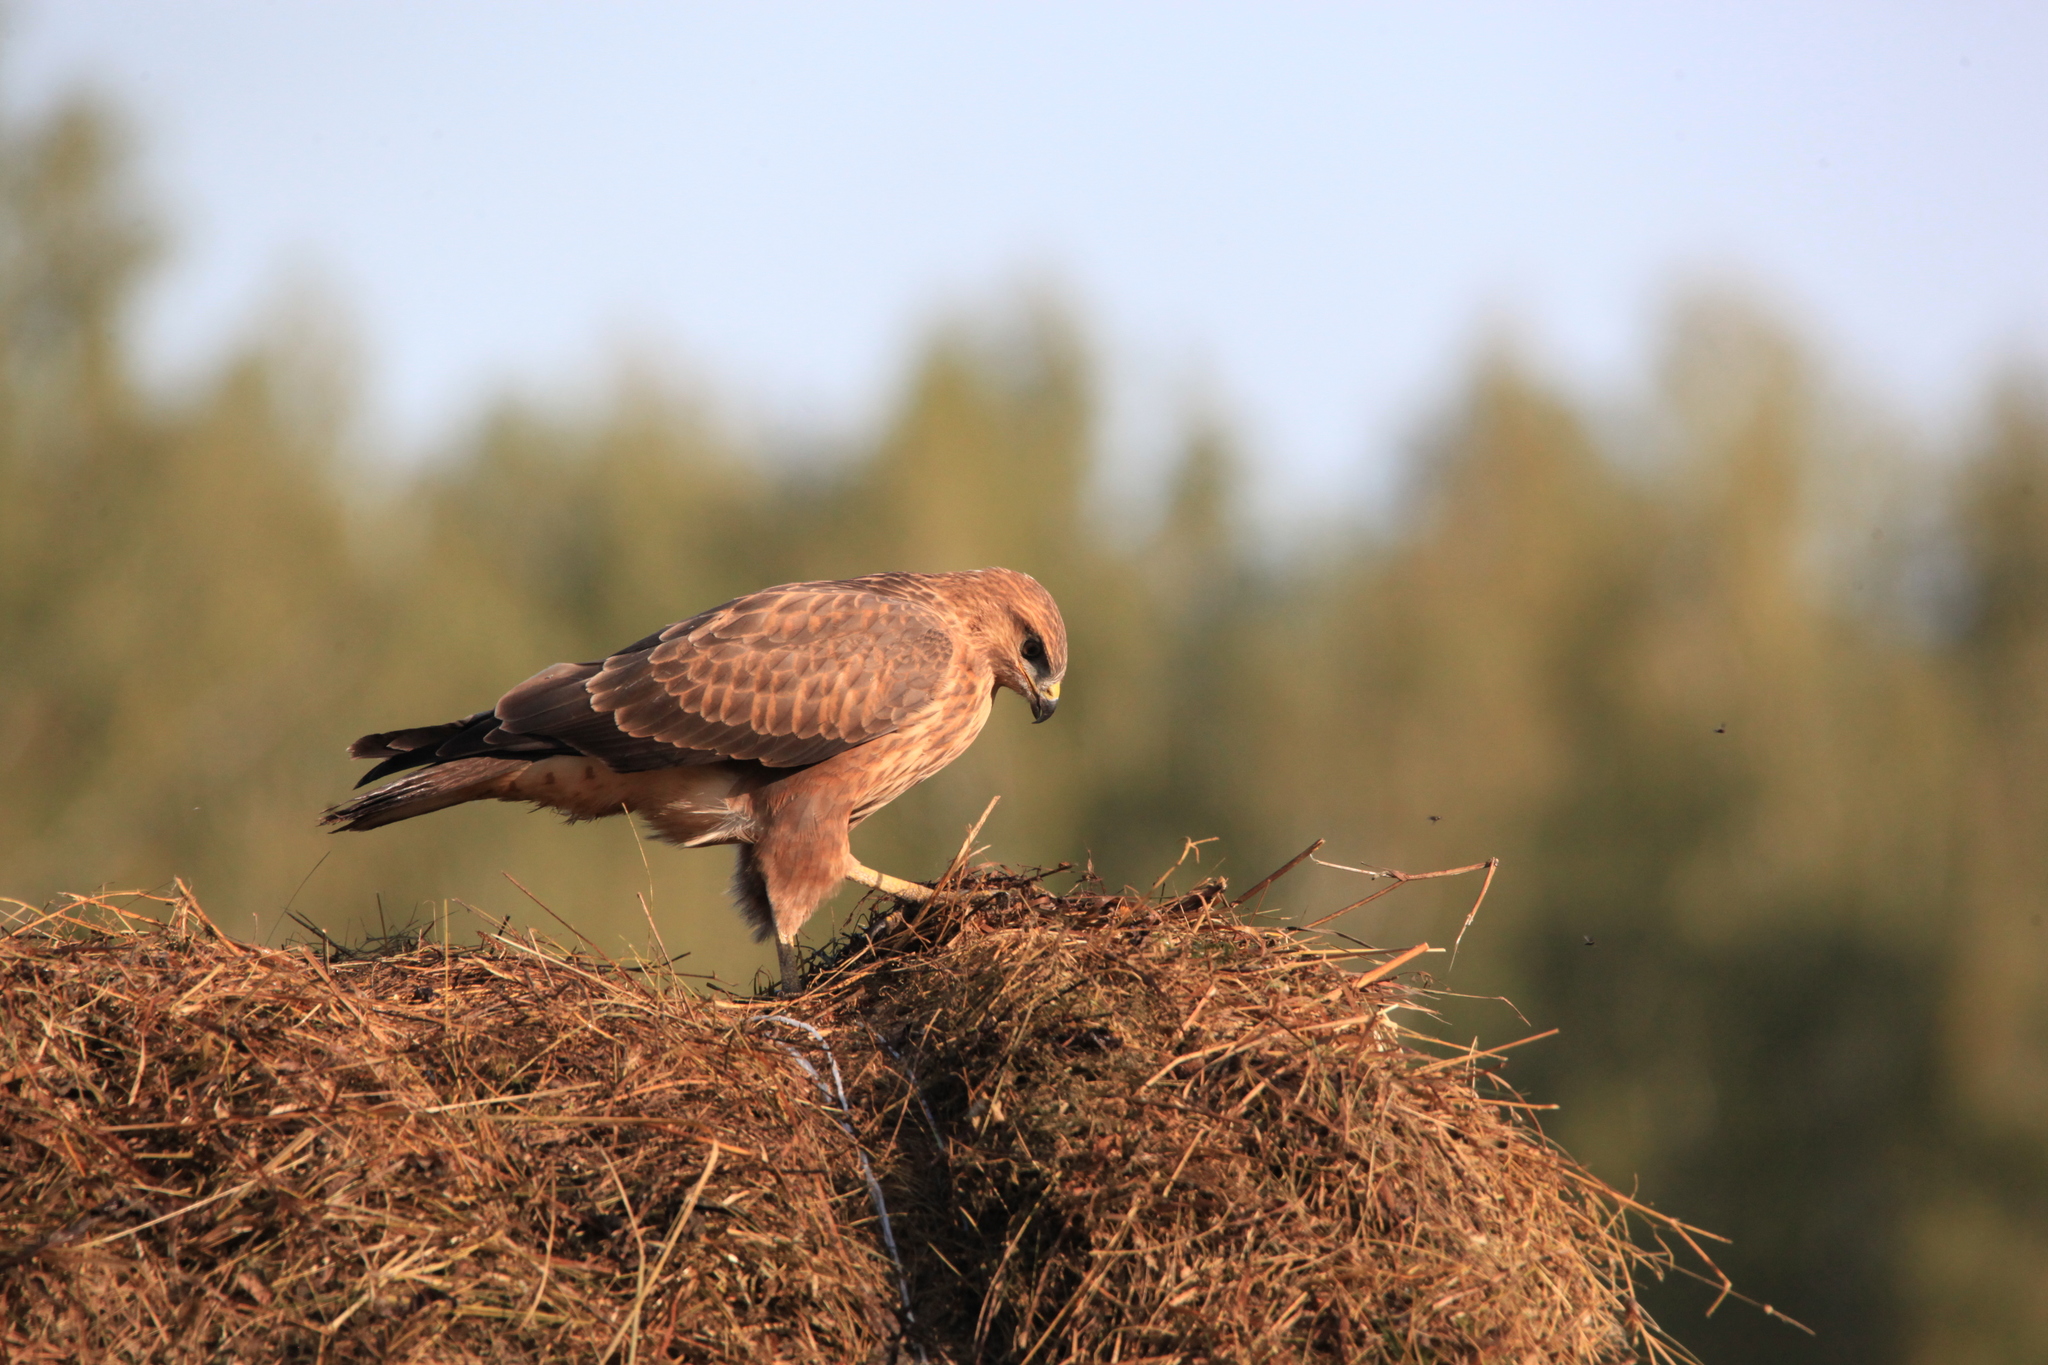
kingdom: Animalia
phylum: Chordata
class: Aves
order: Accipitriformes
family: Accipitridae
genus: Buteo
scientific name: Buteo buteo
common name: Common buzzard
